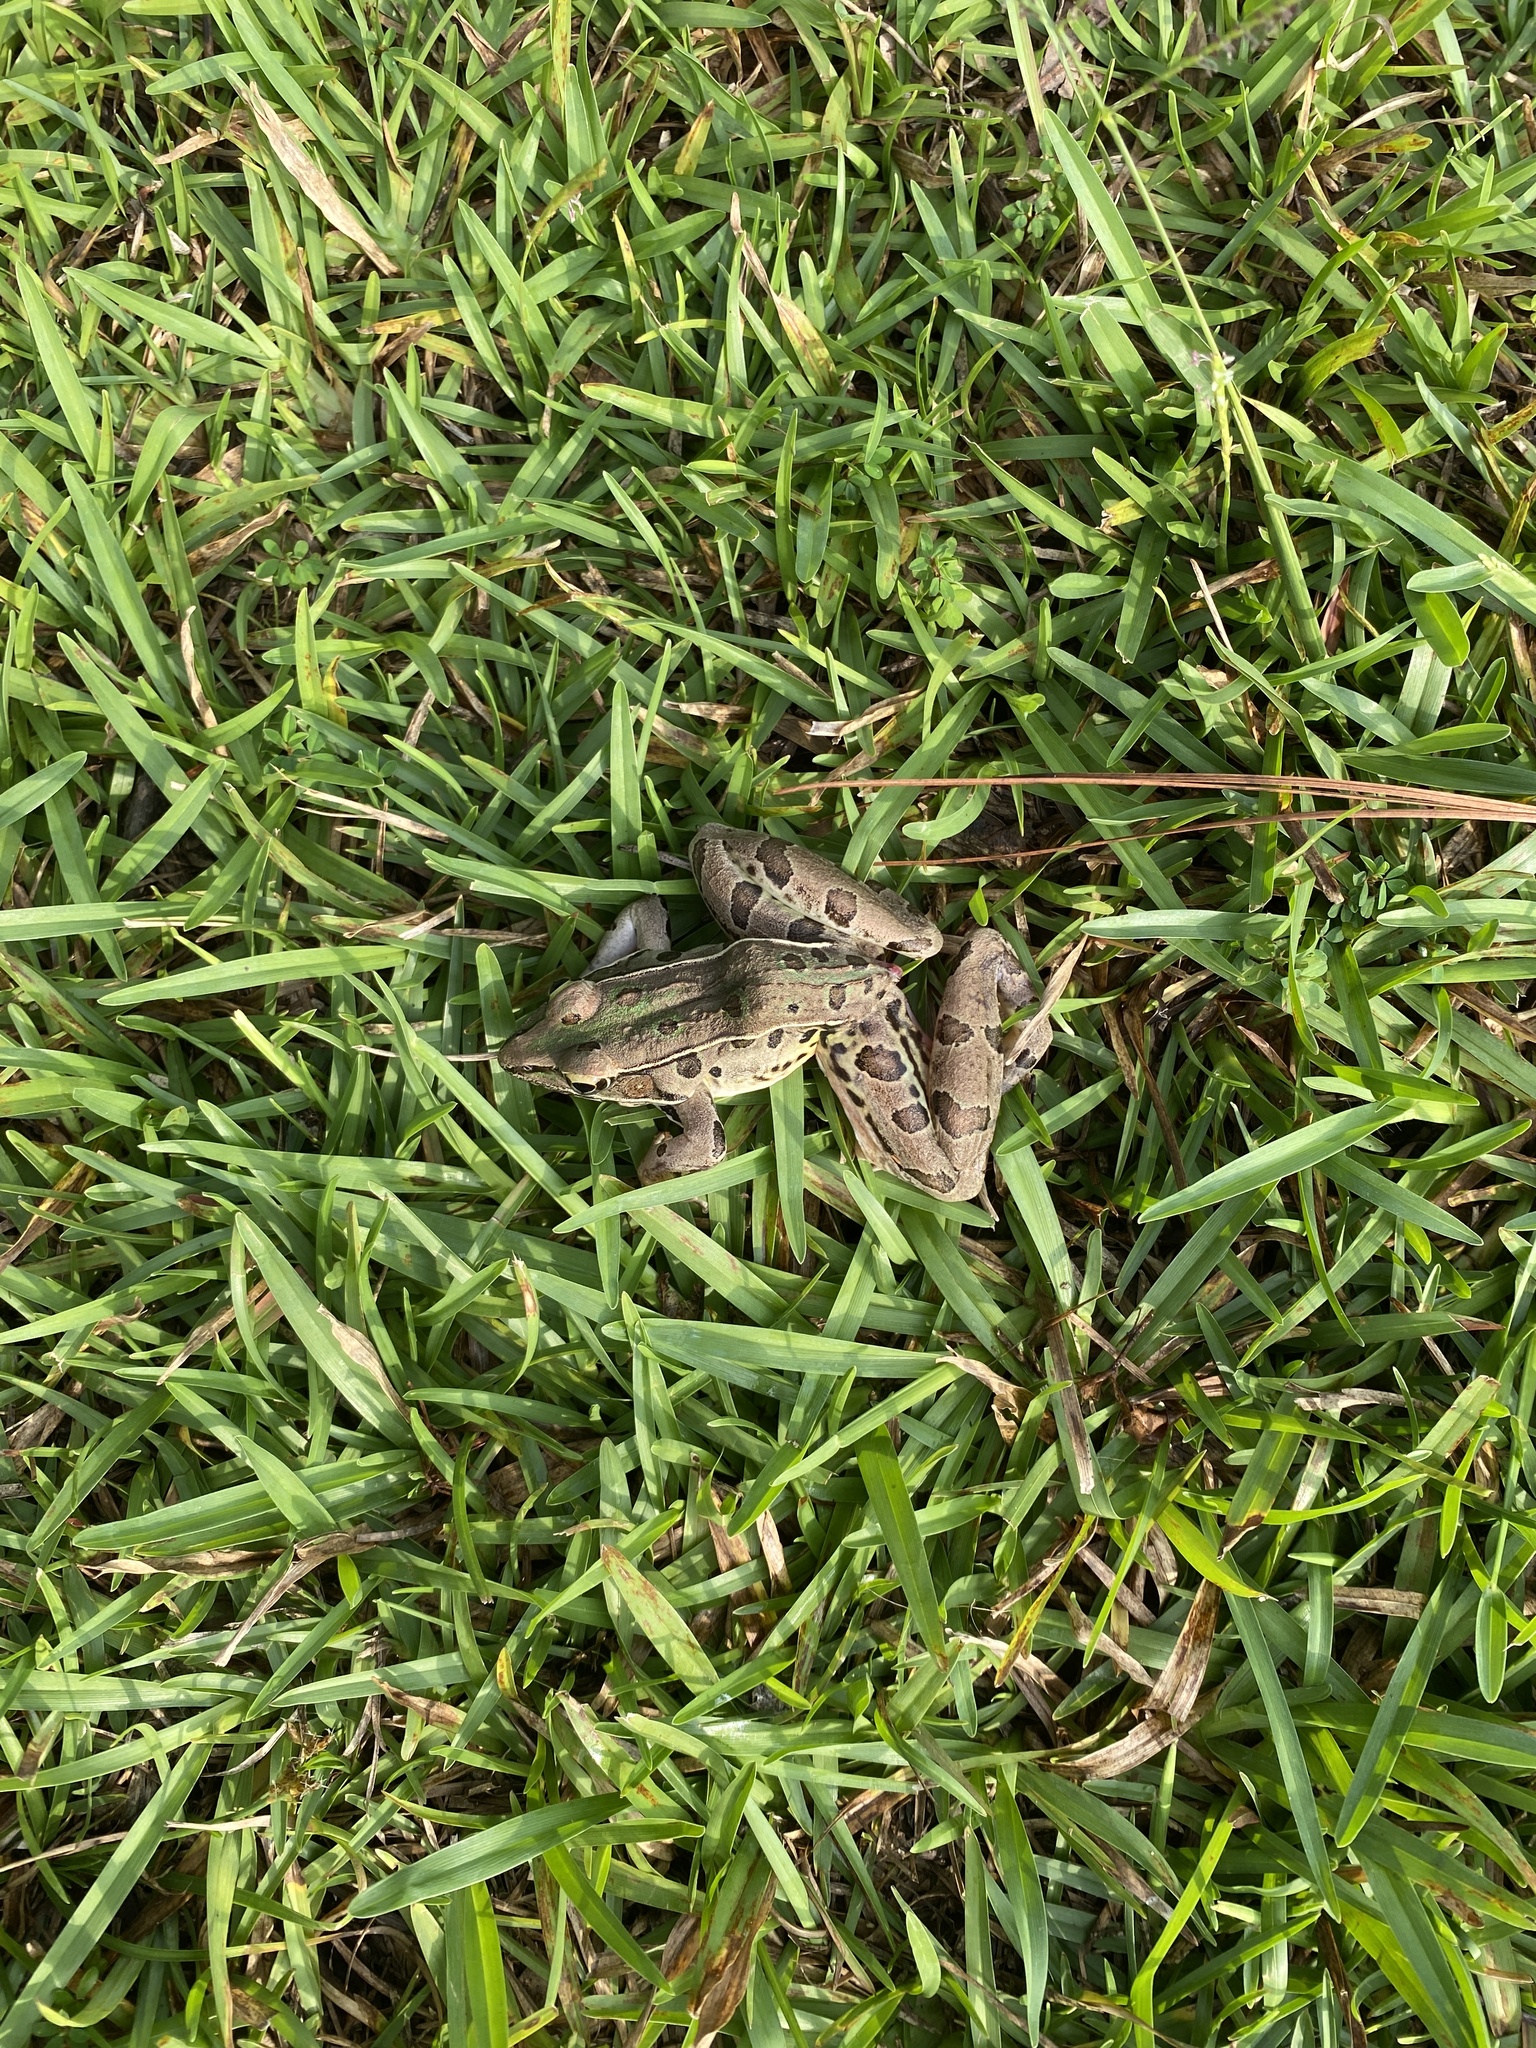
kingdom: Animalia
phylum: Chordata
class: Amphibia
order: Anura
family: Ranidae
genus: Lithobates
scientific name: Lithobates sphenocephalus
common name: Southern leopard frog
